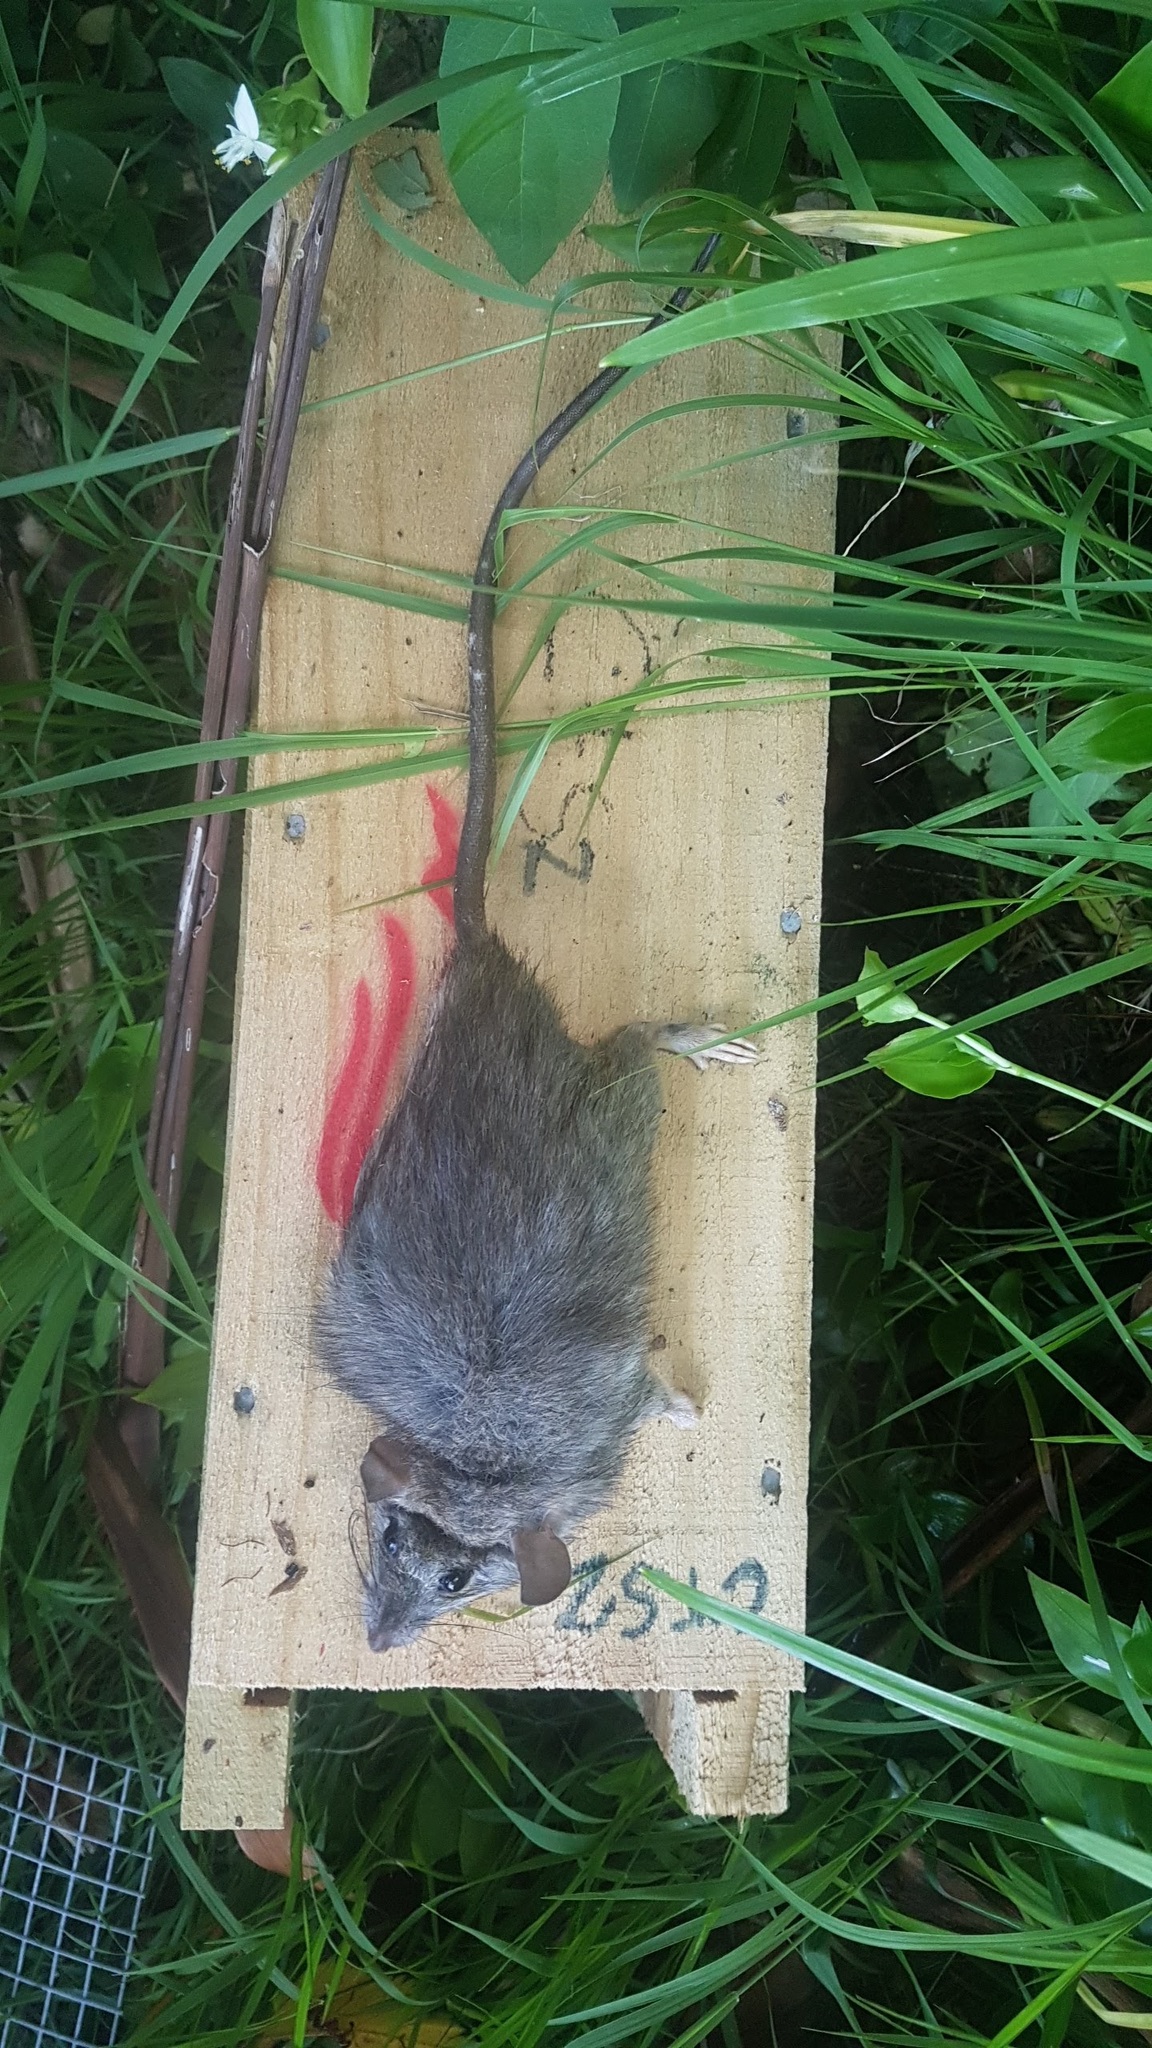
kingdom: Animalia
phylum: Chordata
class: Mammalia
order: Rodentia
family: Muridae
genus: Rattus
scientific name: Rattus rattus
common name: Black rat
